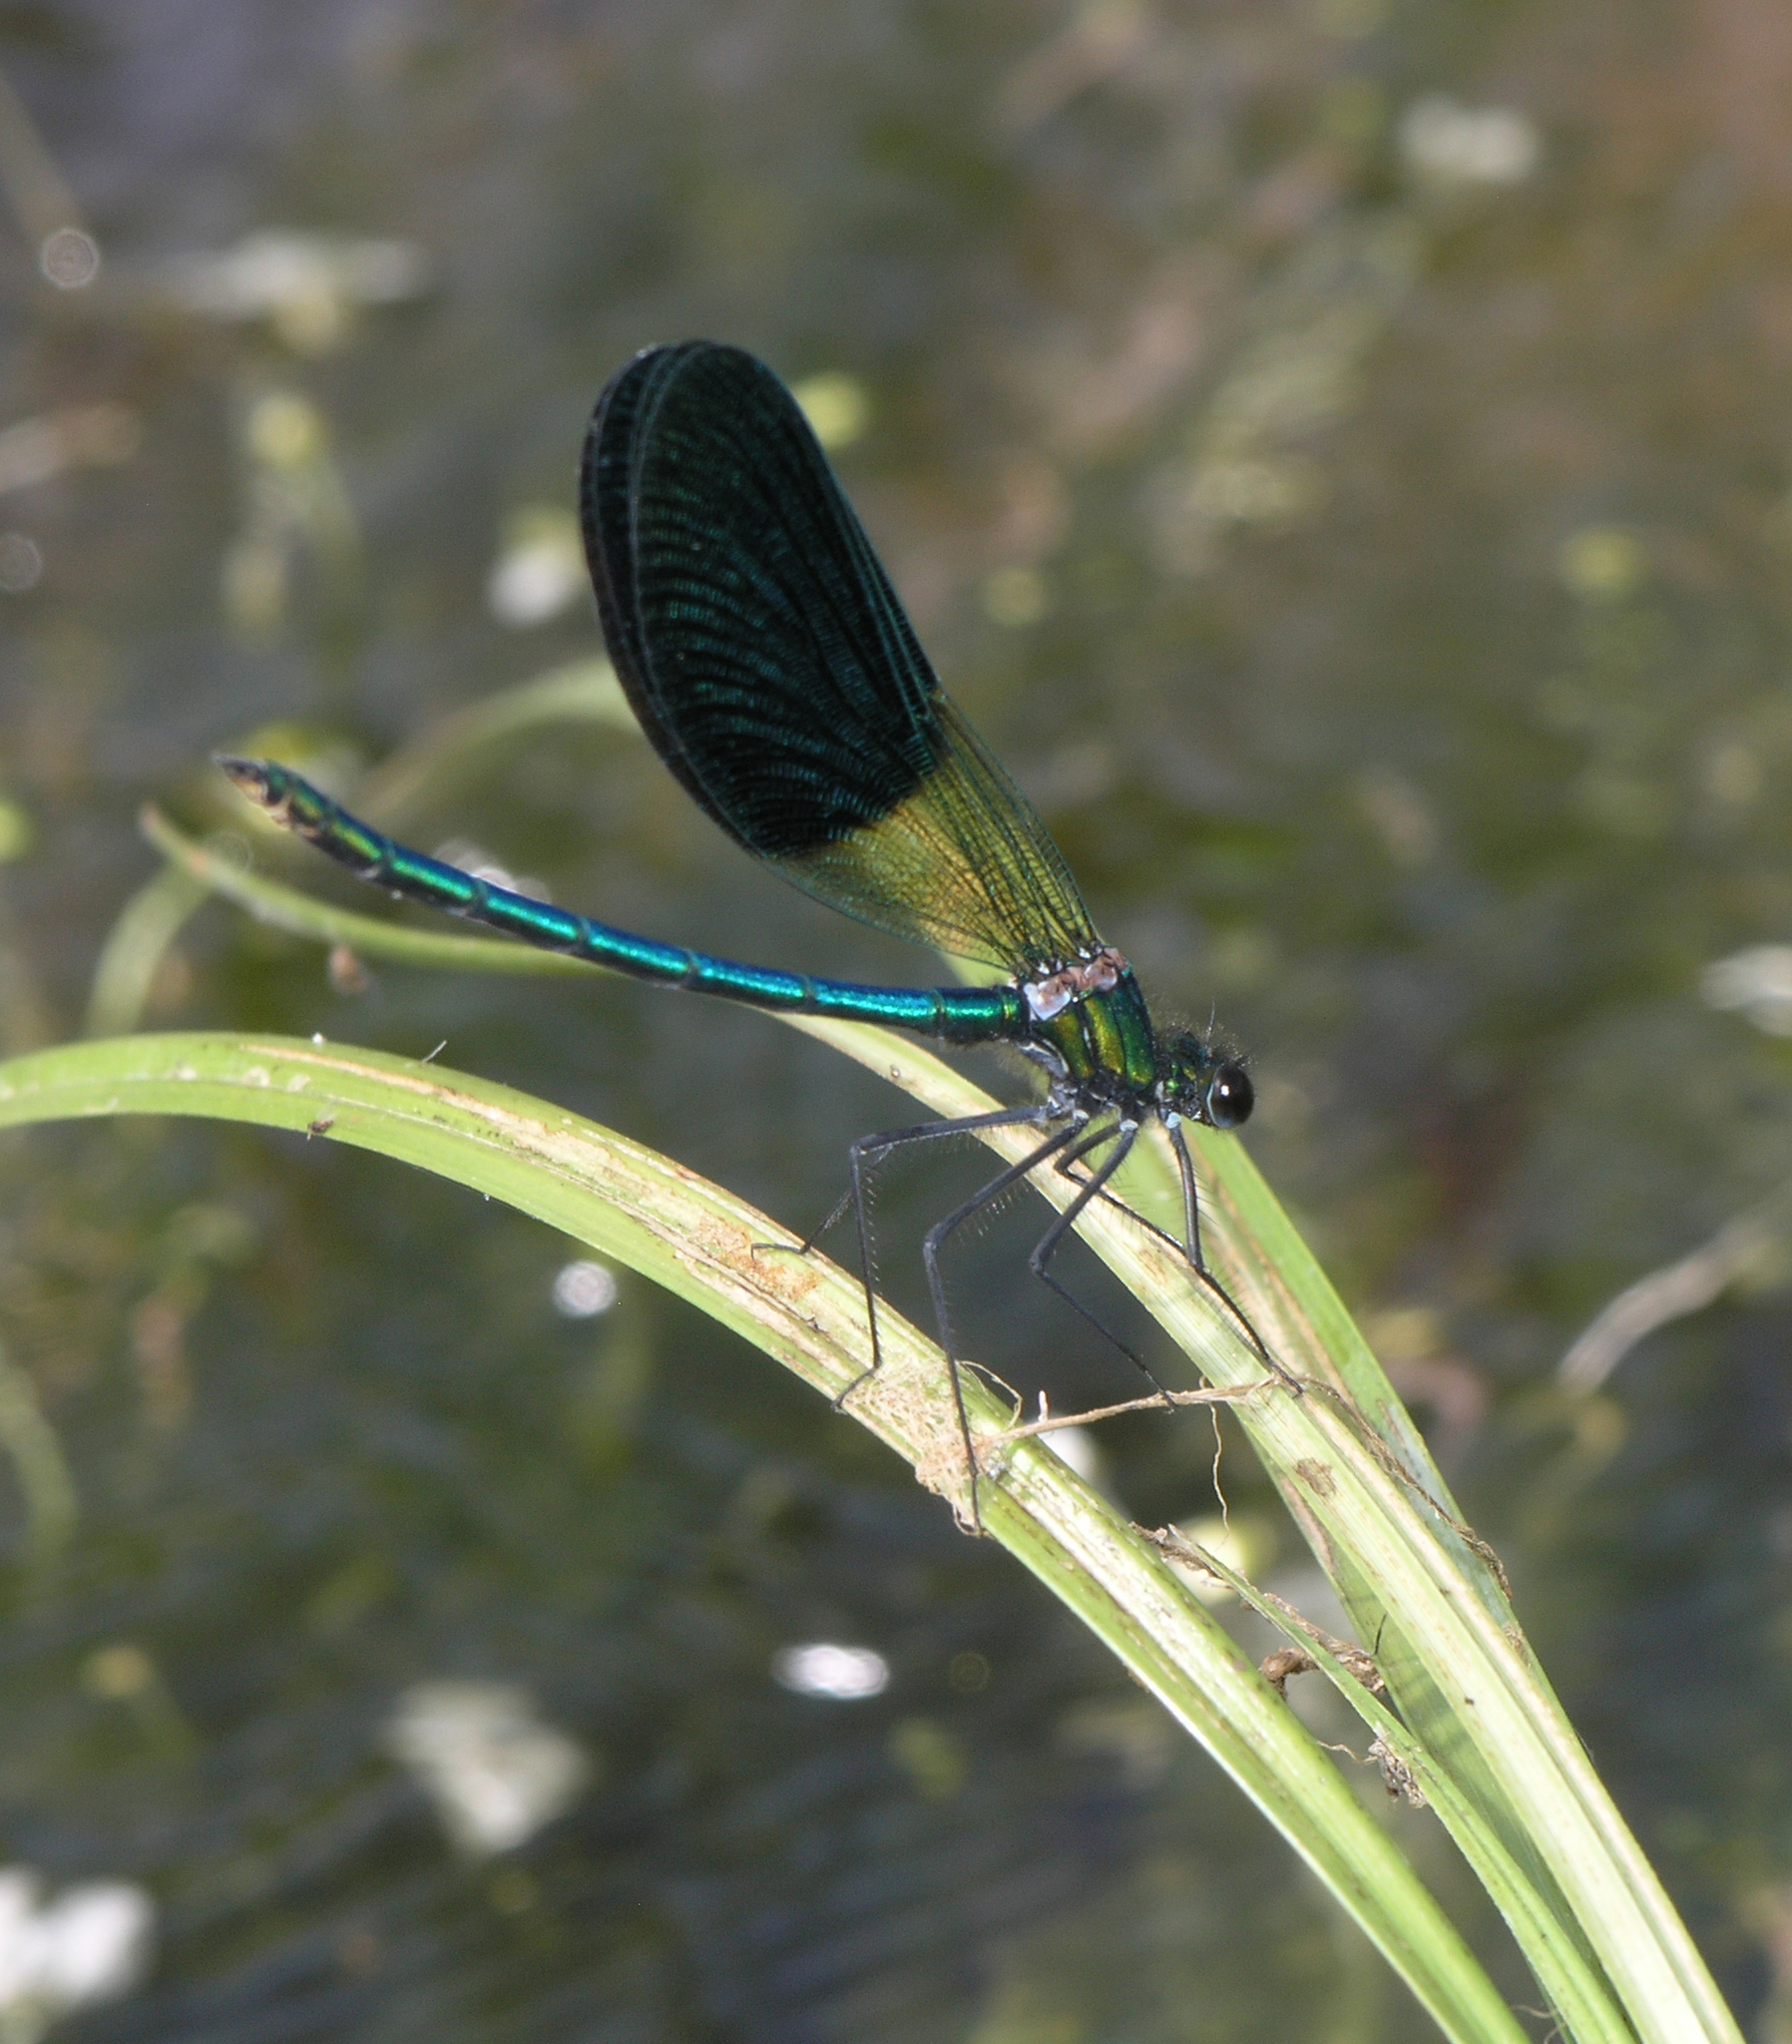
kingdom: Animalia
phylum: Arthropoda
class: Insecta
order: Odonata
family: Calopterygidae
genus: Calopteryx
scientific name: Calopteryx xanthostoma
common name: Western demoiselle
